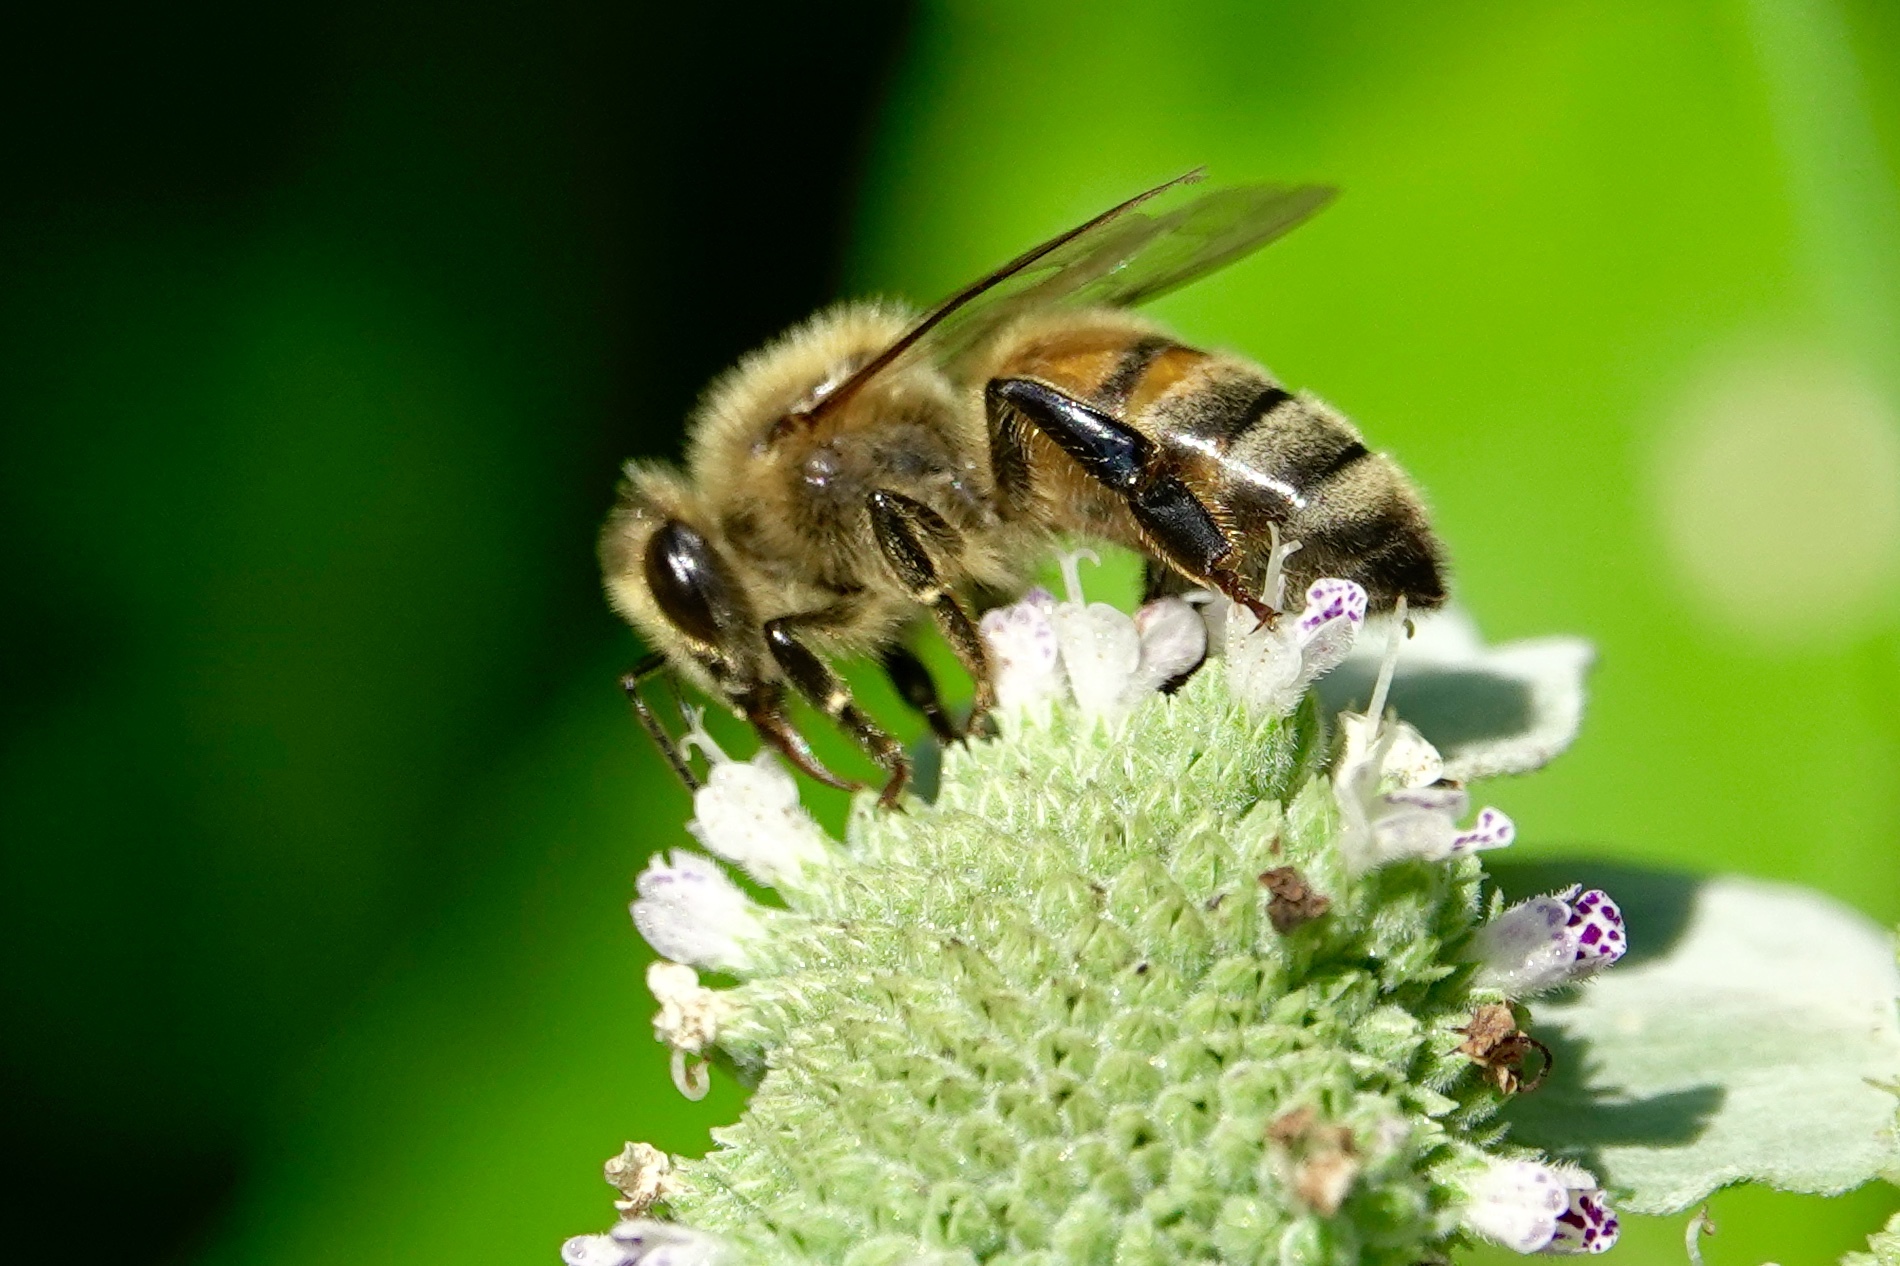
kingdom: Animalia
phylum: Arthropoda
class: Insecta
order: Hymenoptera
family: Apidae
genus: Apis
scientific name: Apis mellifera
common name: Honey bee
